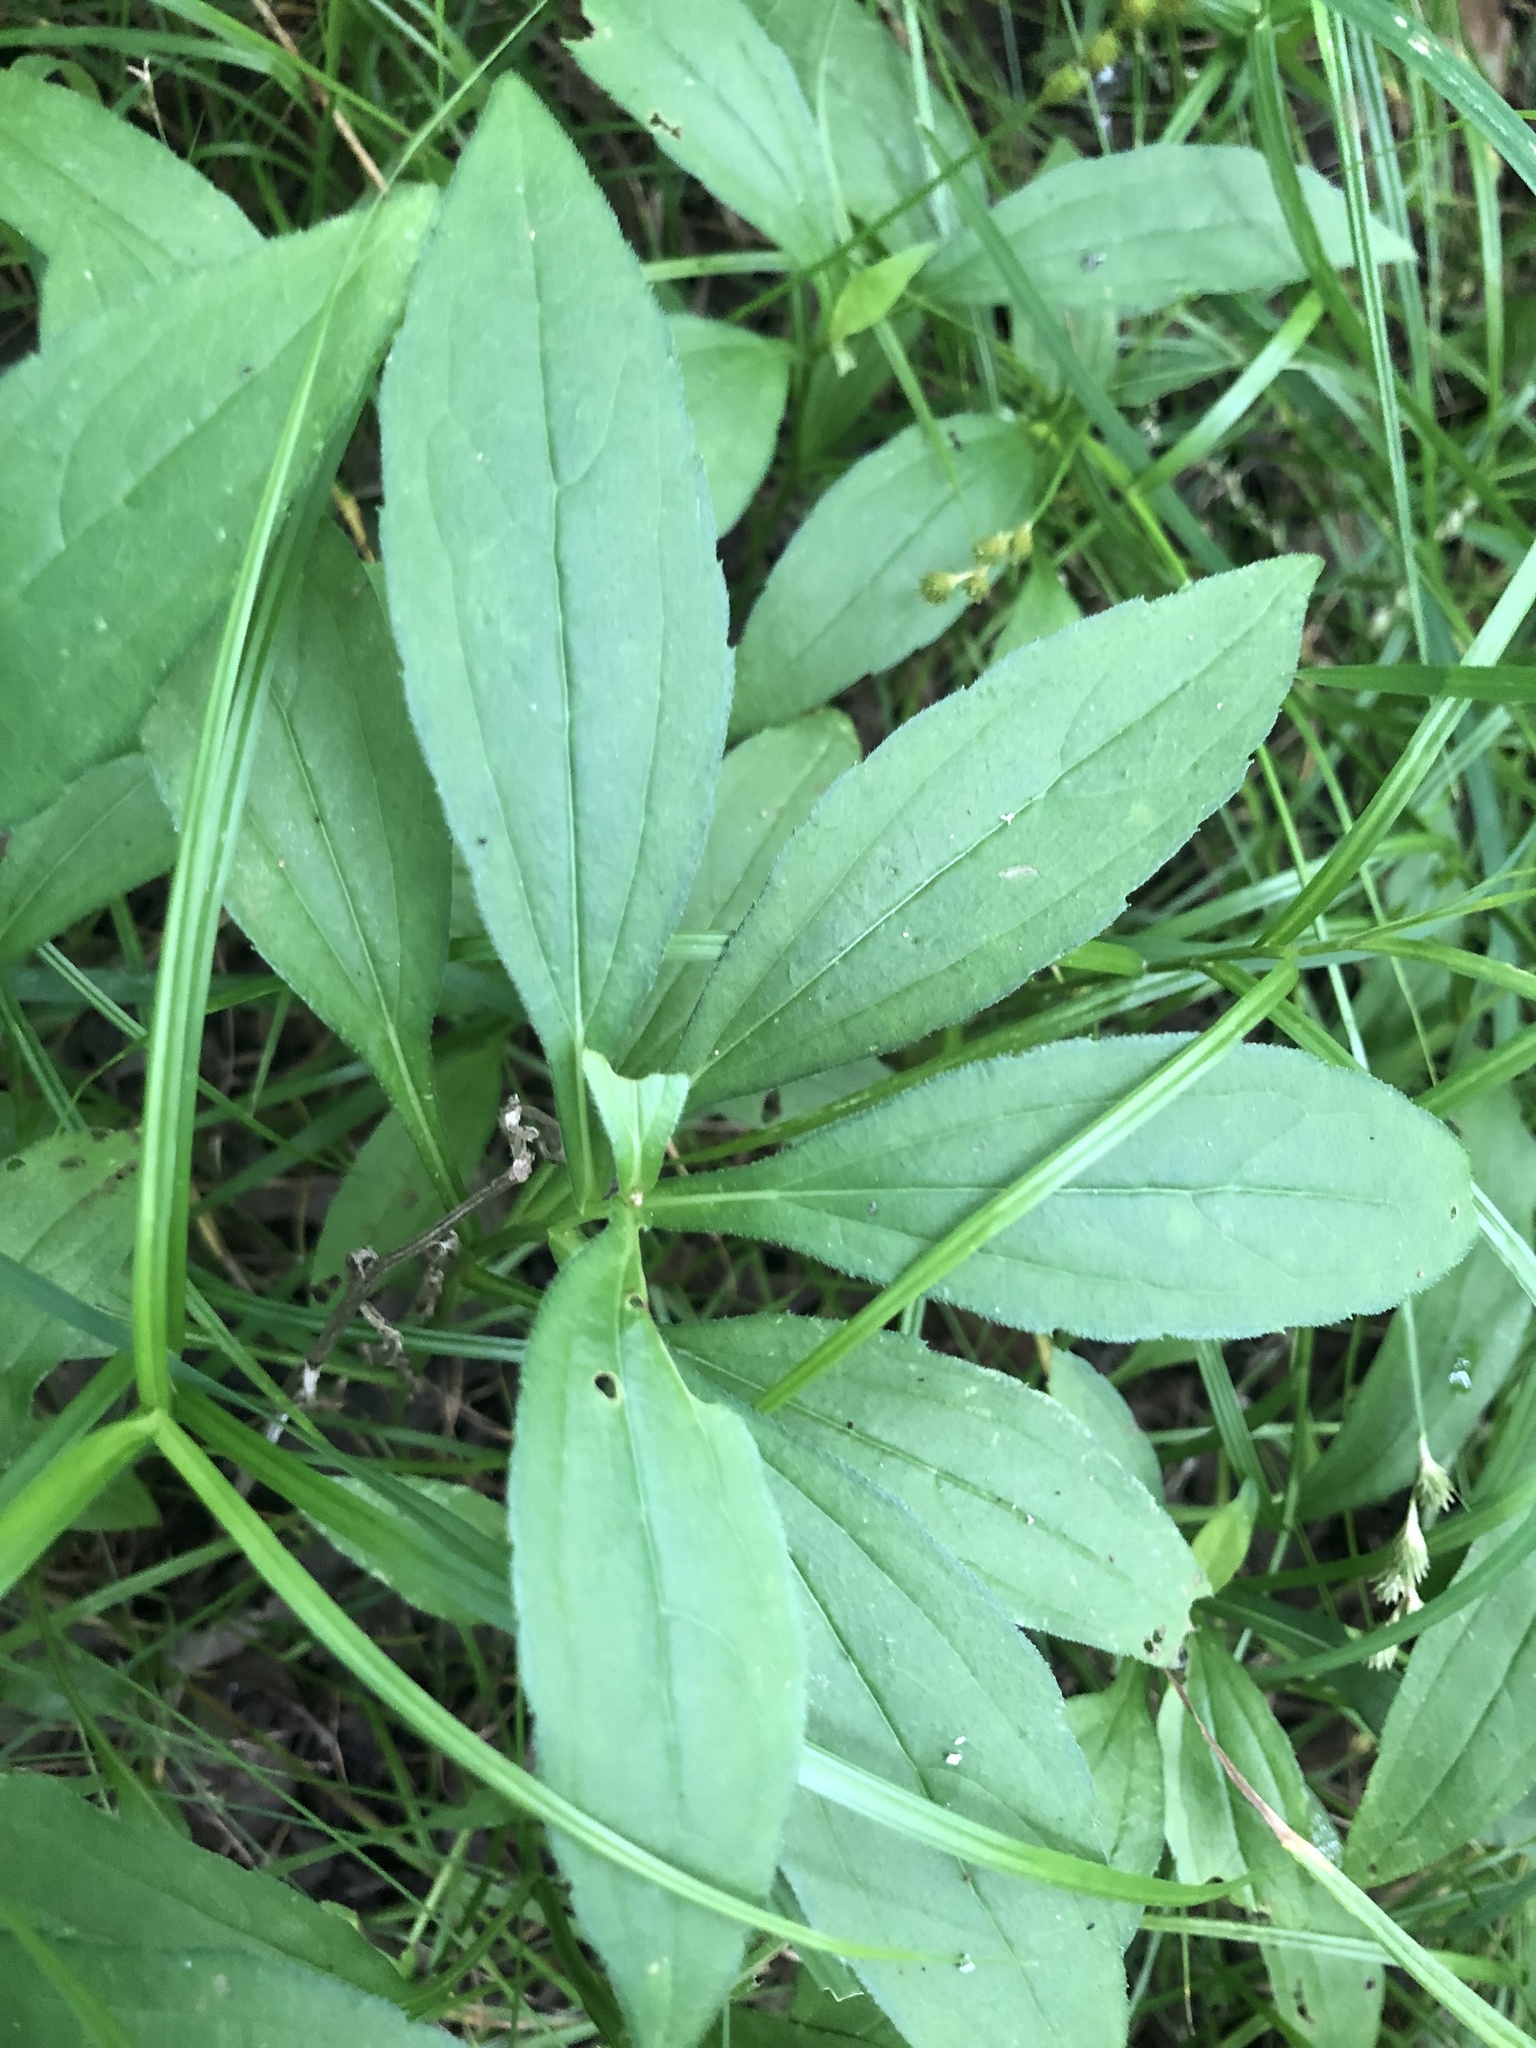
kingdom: Plantae
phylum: Tracheophyta
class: Magnoliopsida
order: Asterales
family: Asteraceae
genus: Rudbeckia
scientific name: Rudbeckia terranigrae
